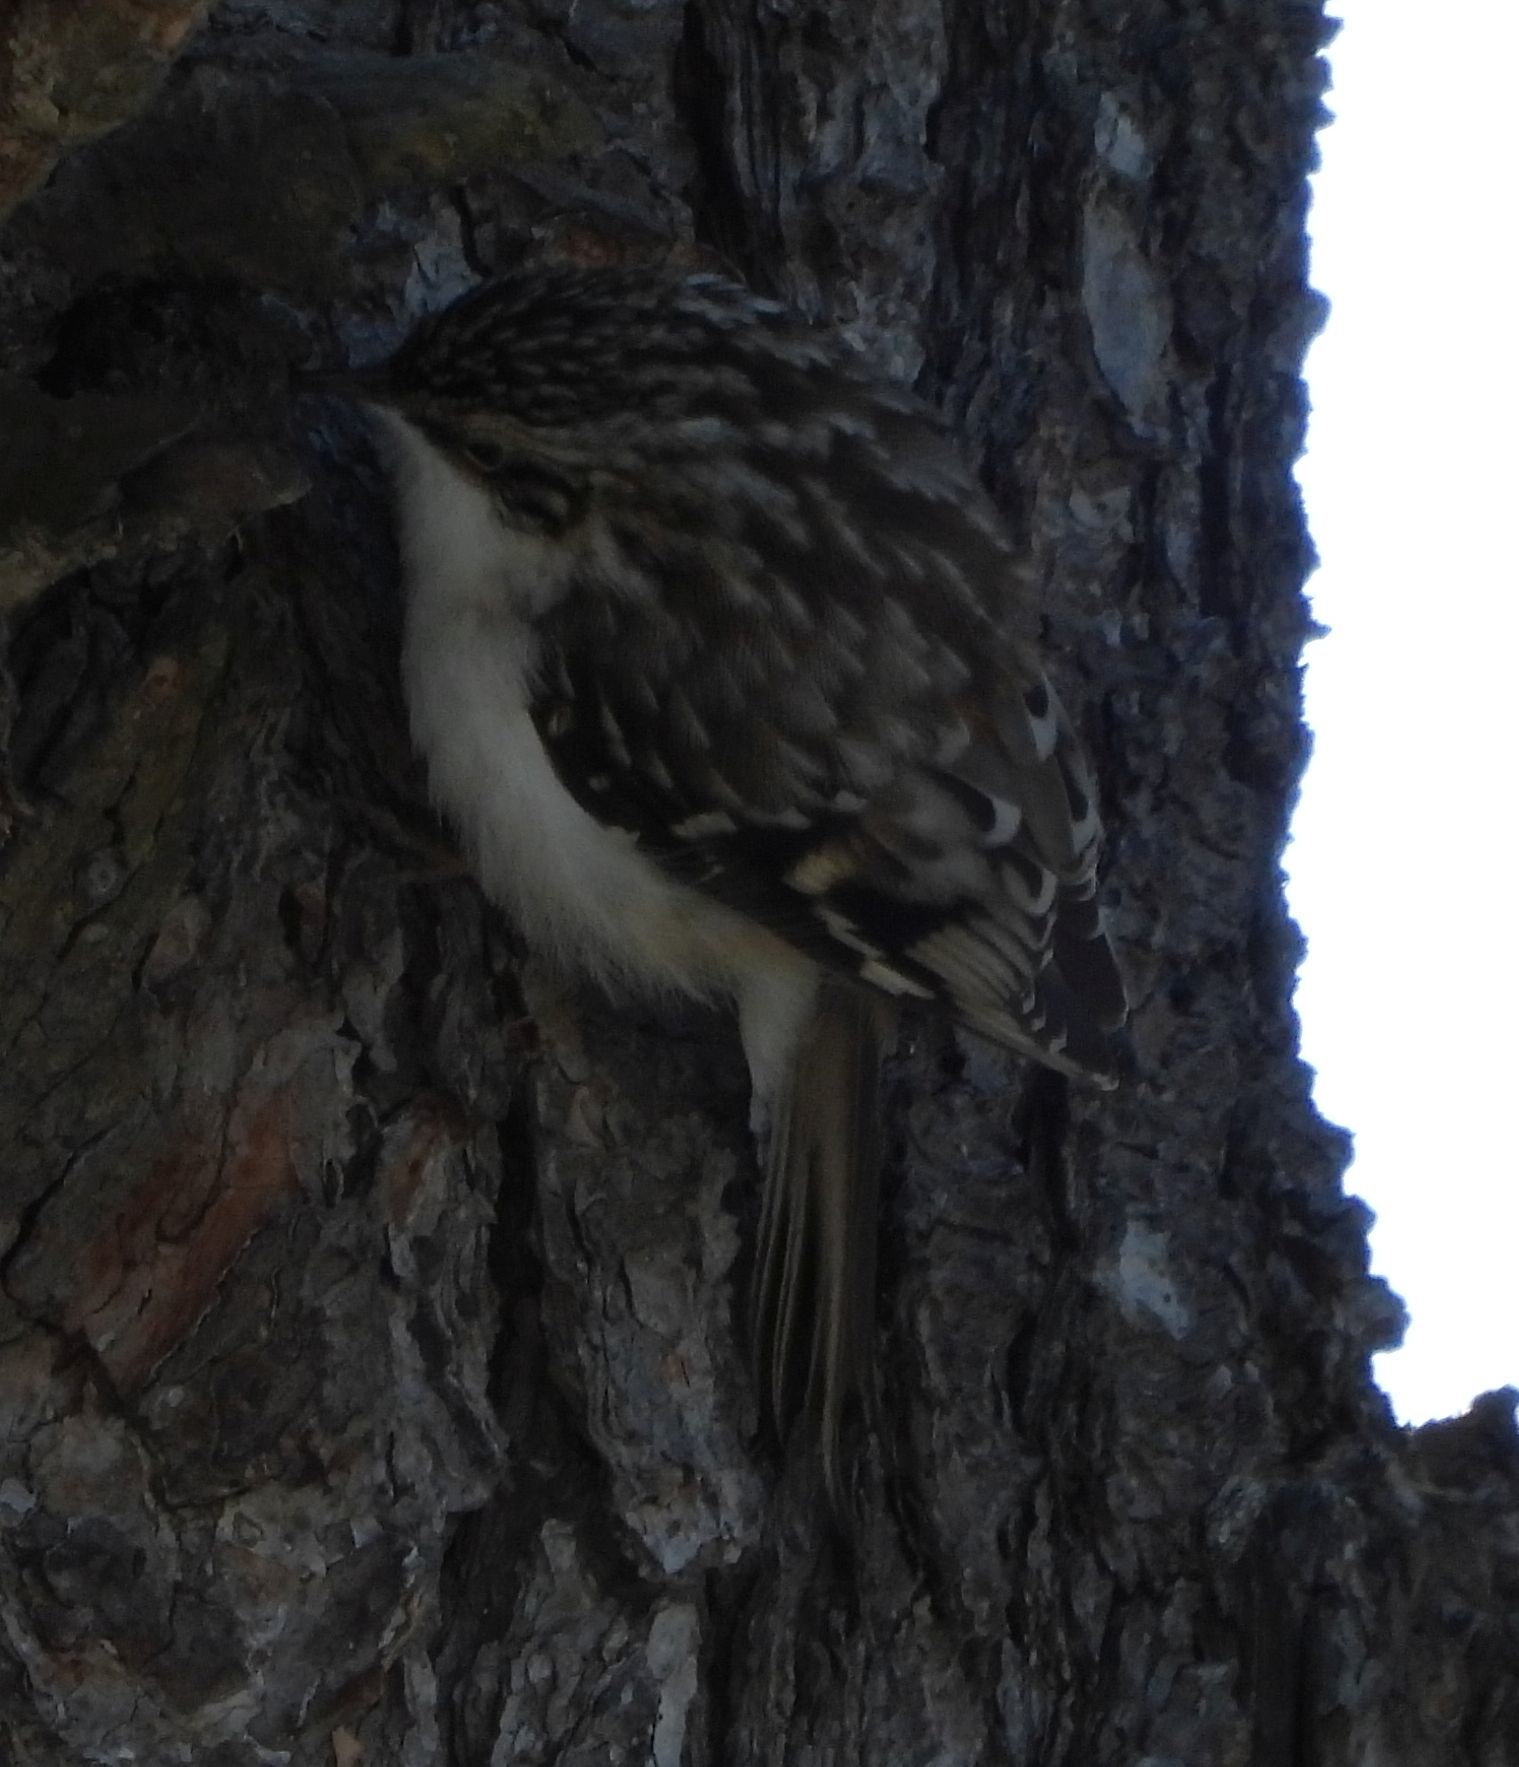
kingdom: Animalia
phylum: Chordata
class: Aves
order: Passeriformes
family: Certhiidae
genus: Certhia
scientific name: Certhia americana
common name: Brown creeper
